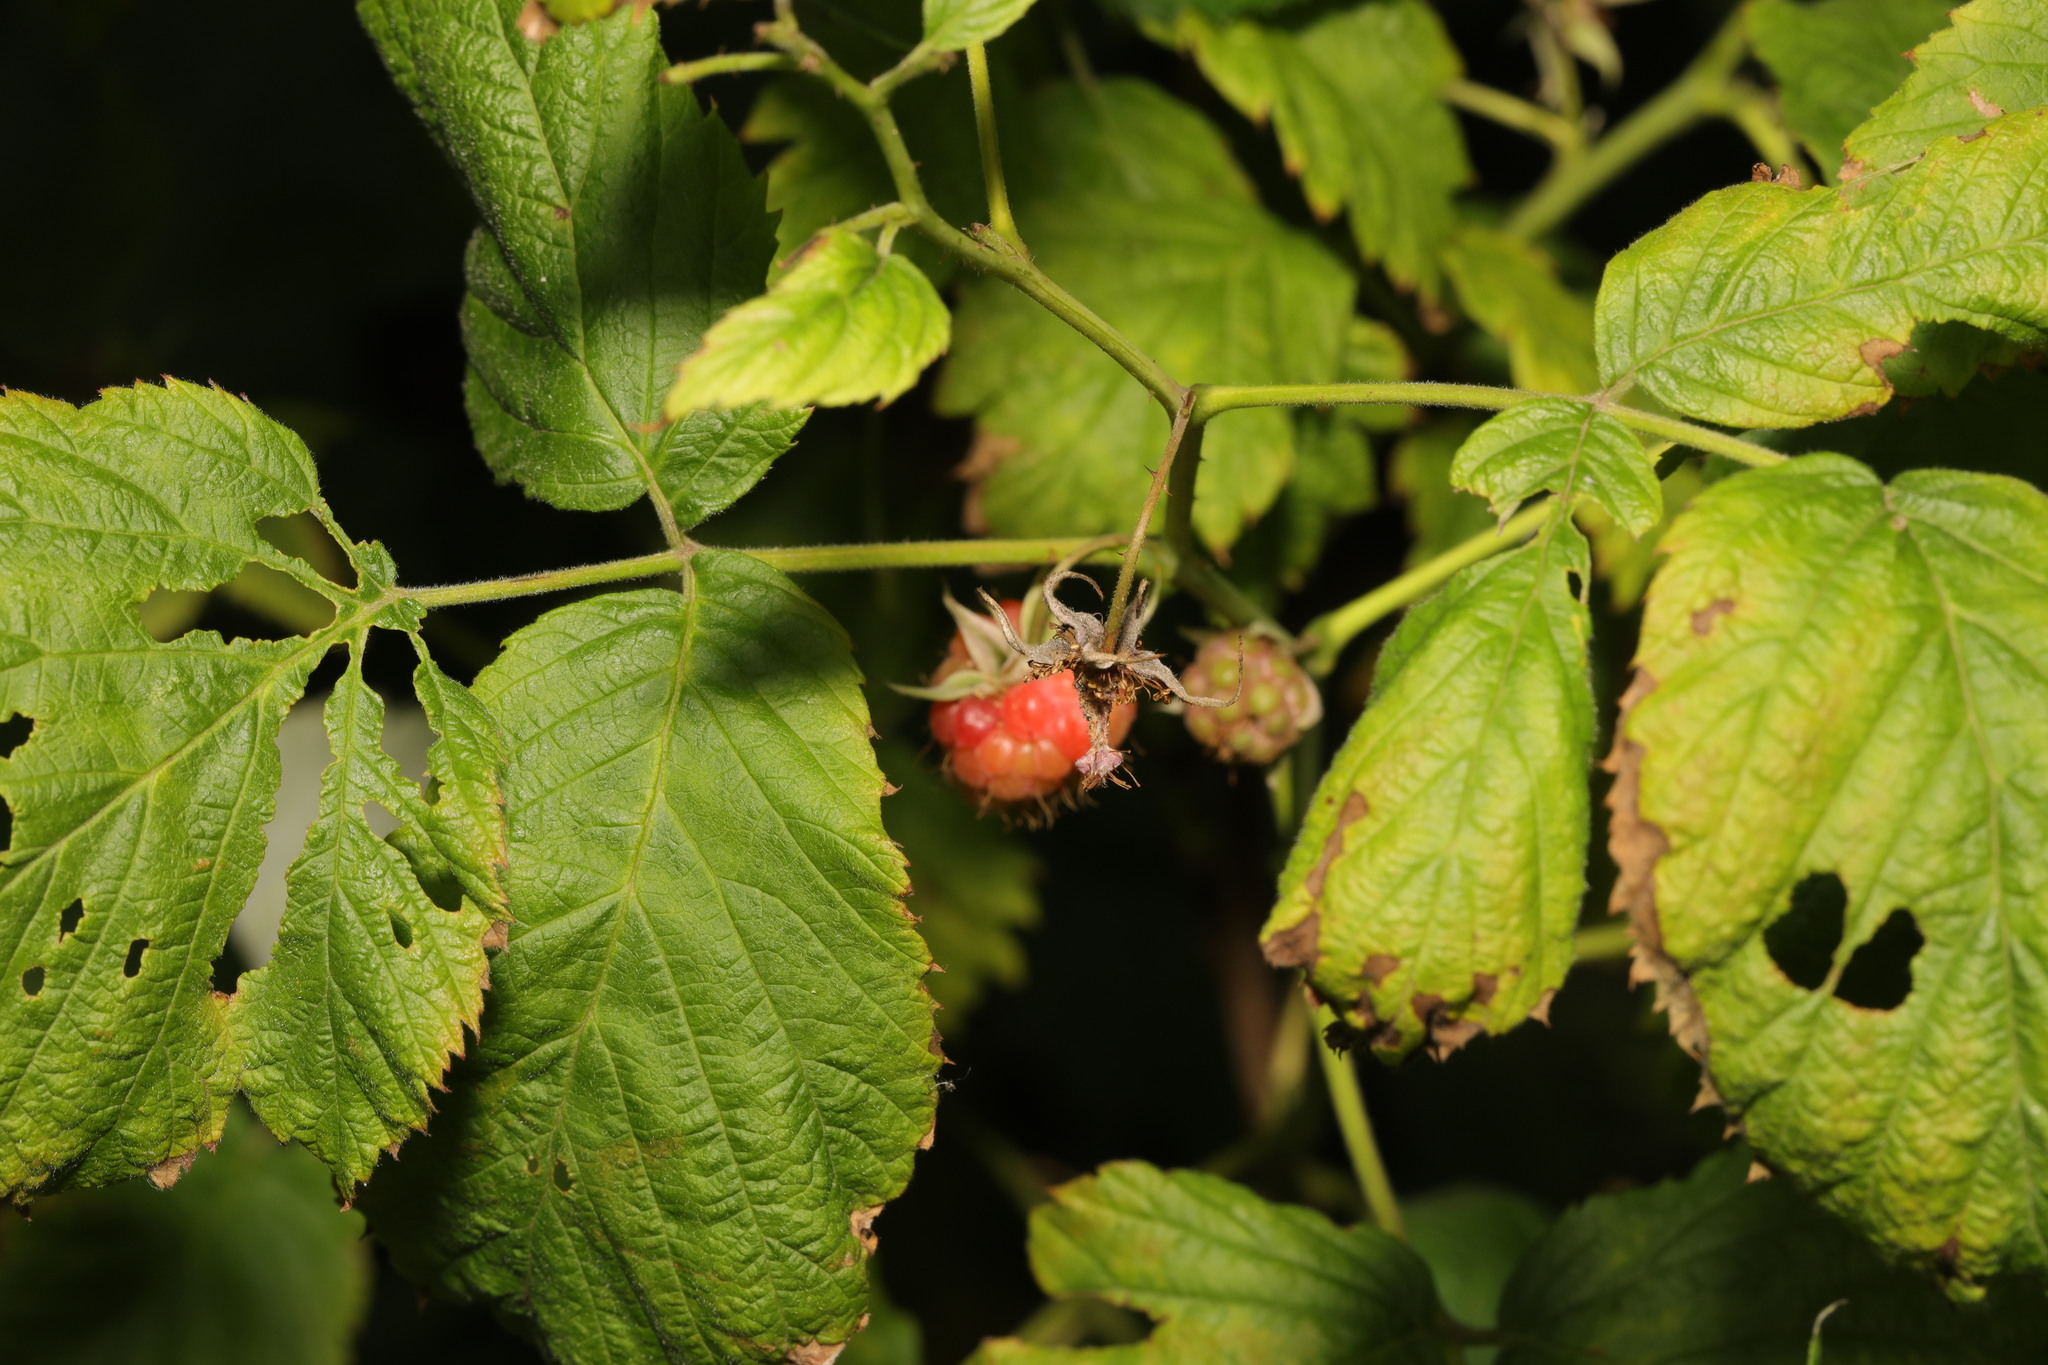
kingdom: Plantae
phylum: Tracheophyta
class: Magnoliopsida
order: Rosales
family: Rosaceae
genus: Rubus
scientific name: Rubus idaeus
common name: Raspberry
